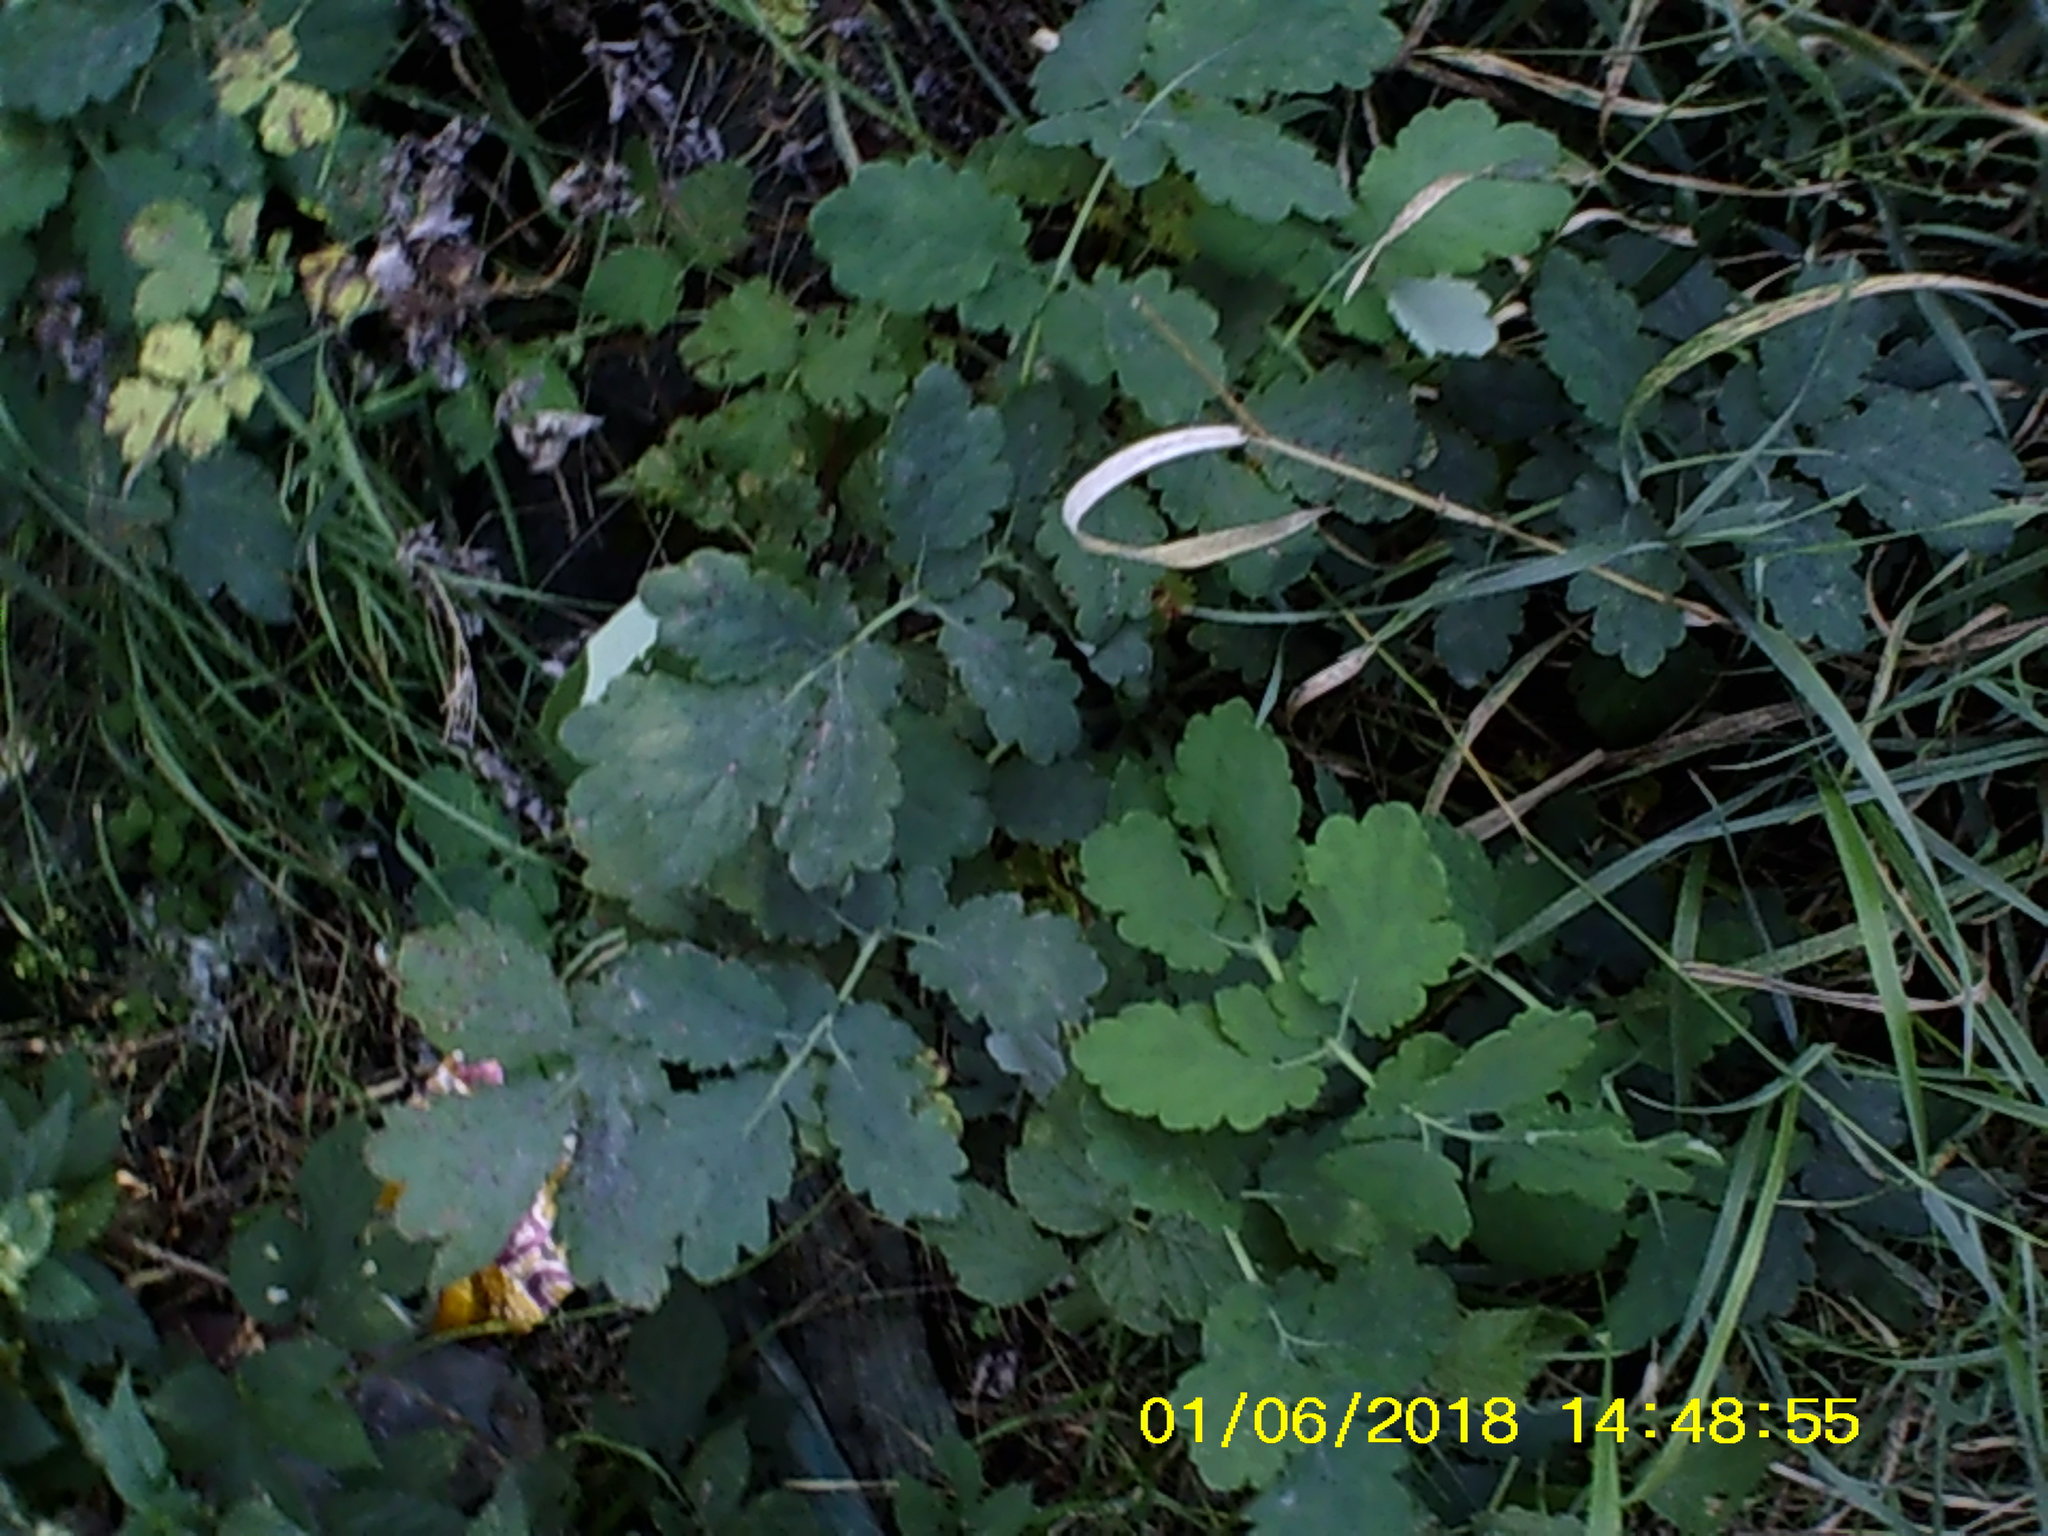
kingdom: Plantae
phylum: Tracheophyta
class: Magnoliopsida
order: Ranunculales
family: Papaveraceae
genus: Chelidonium
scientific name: Chelidonium majus
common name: Greater celandine
